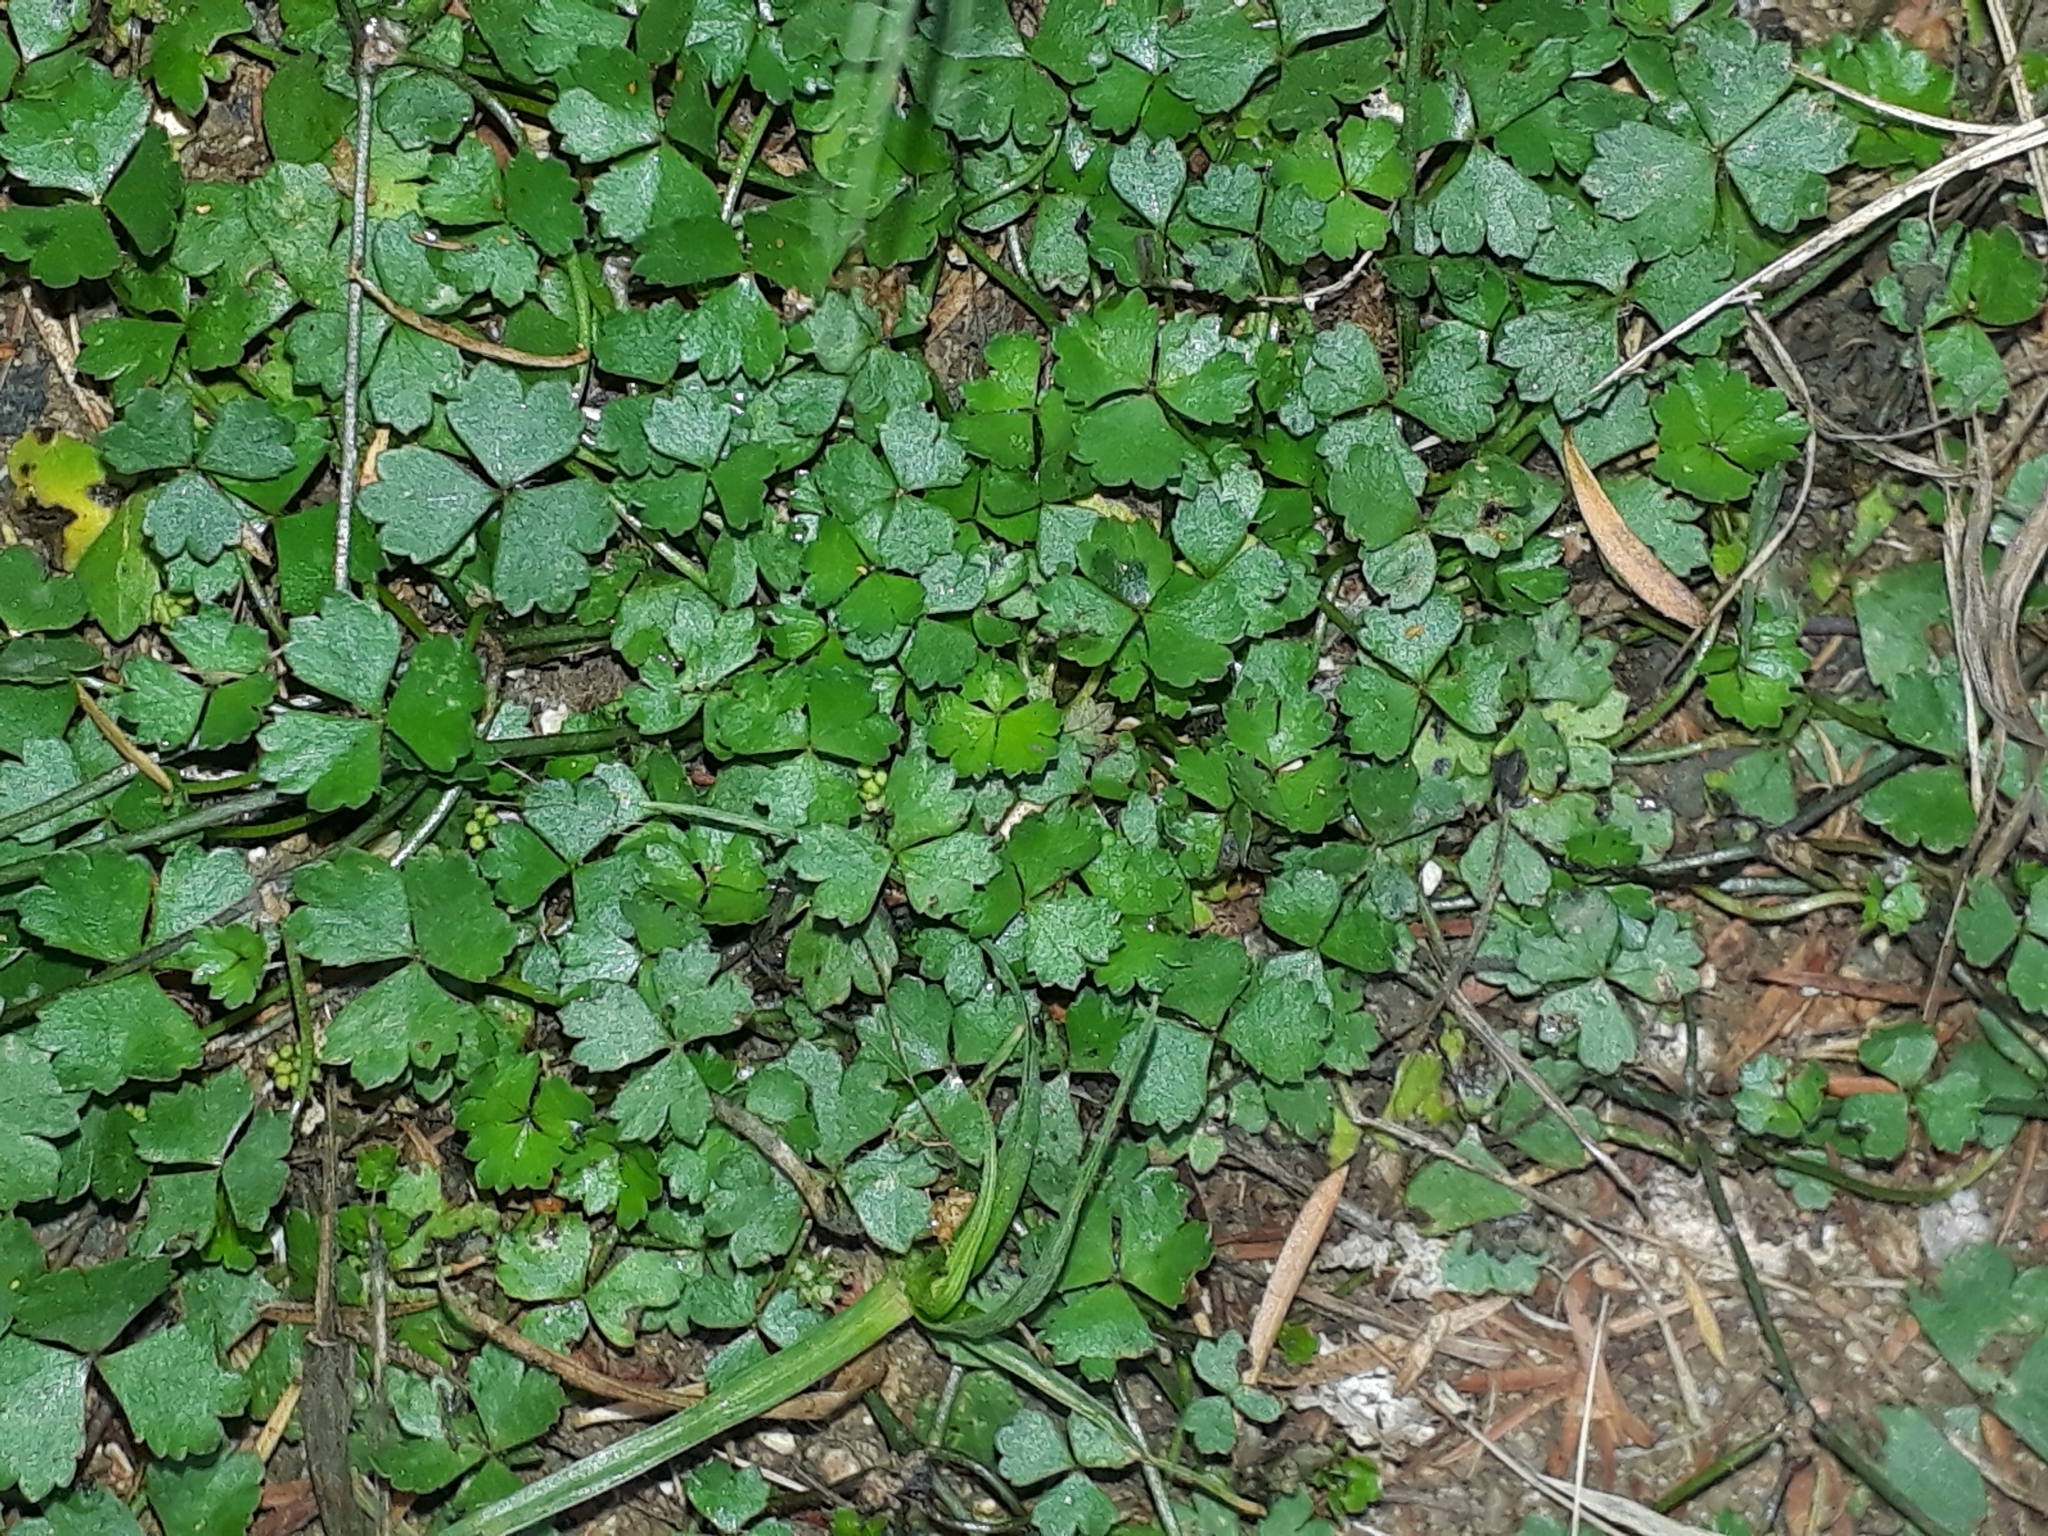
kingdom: Plantae
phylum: Tracheophyta
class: Magnoliopsida
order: Apiales
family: Araliaceae
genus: Hydrocotyle
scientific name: Hydrocotyle tripartita
